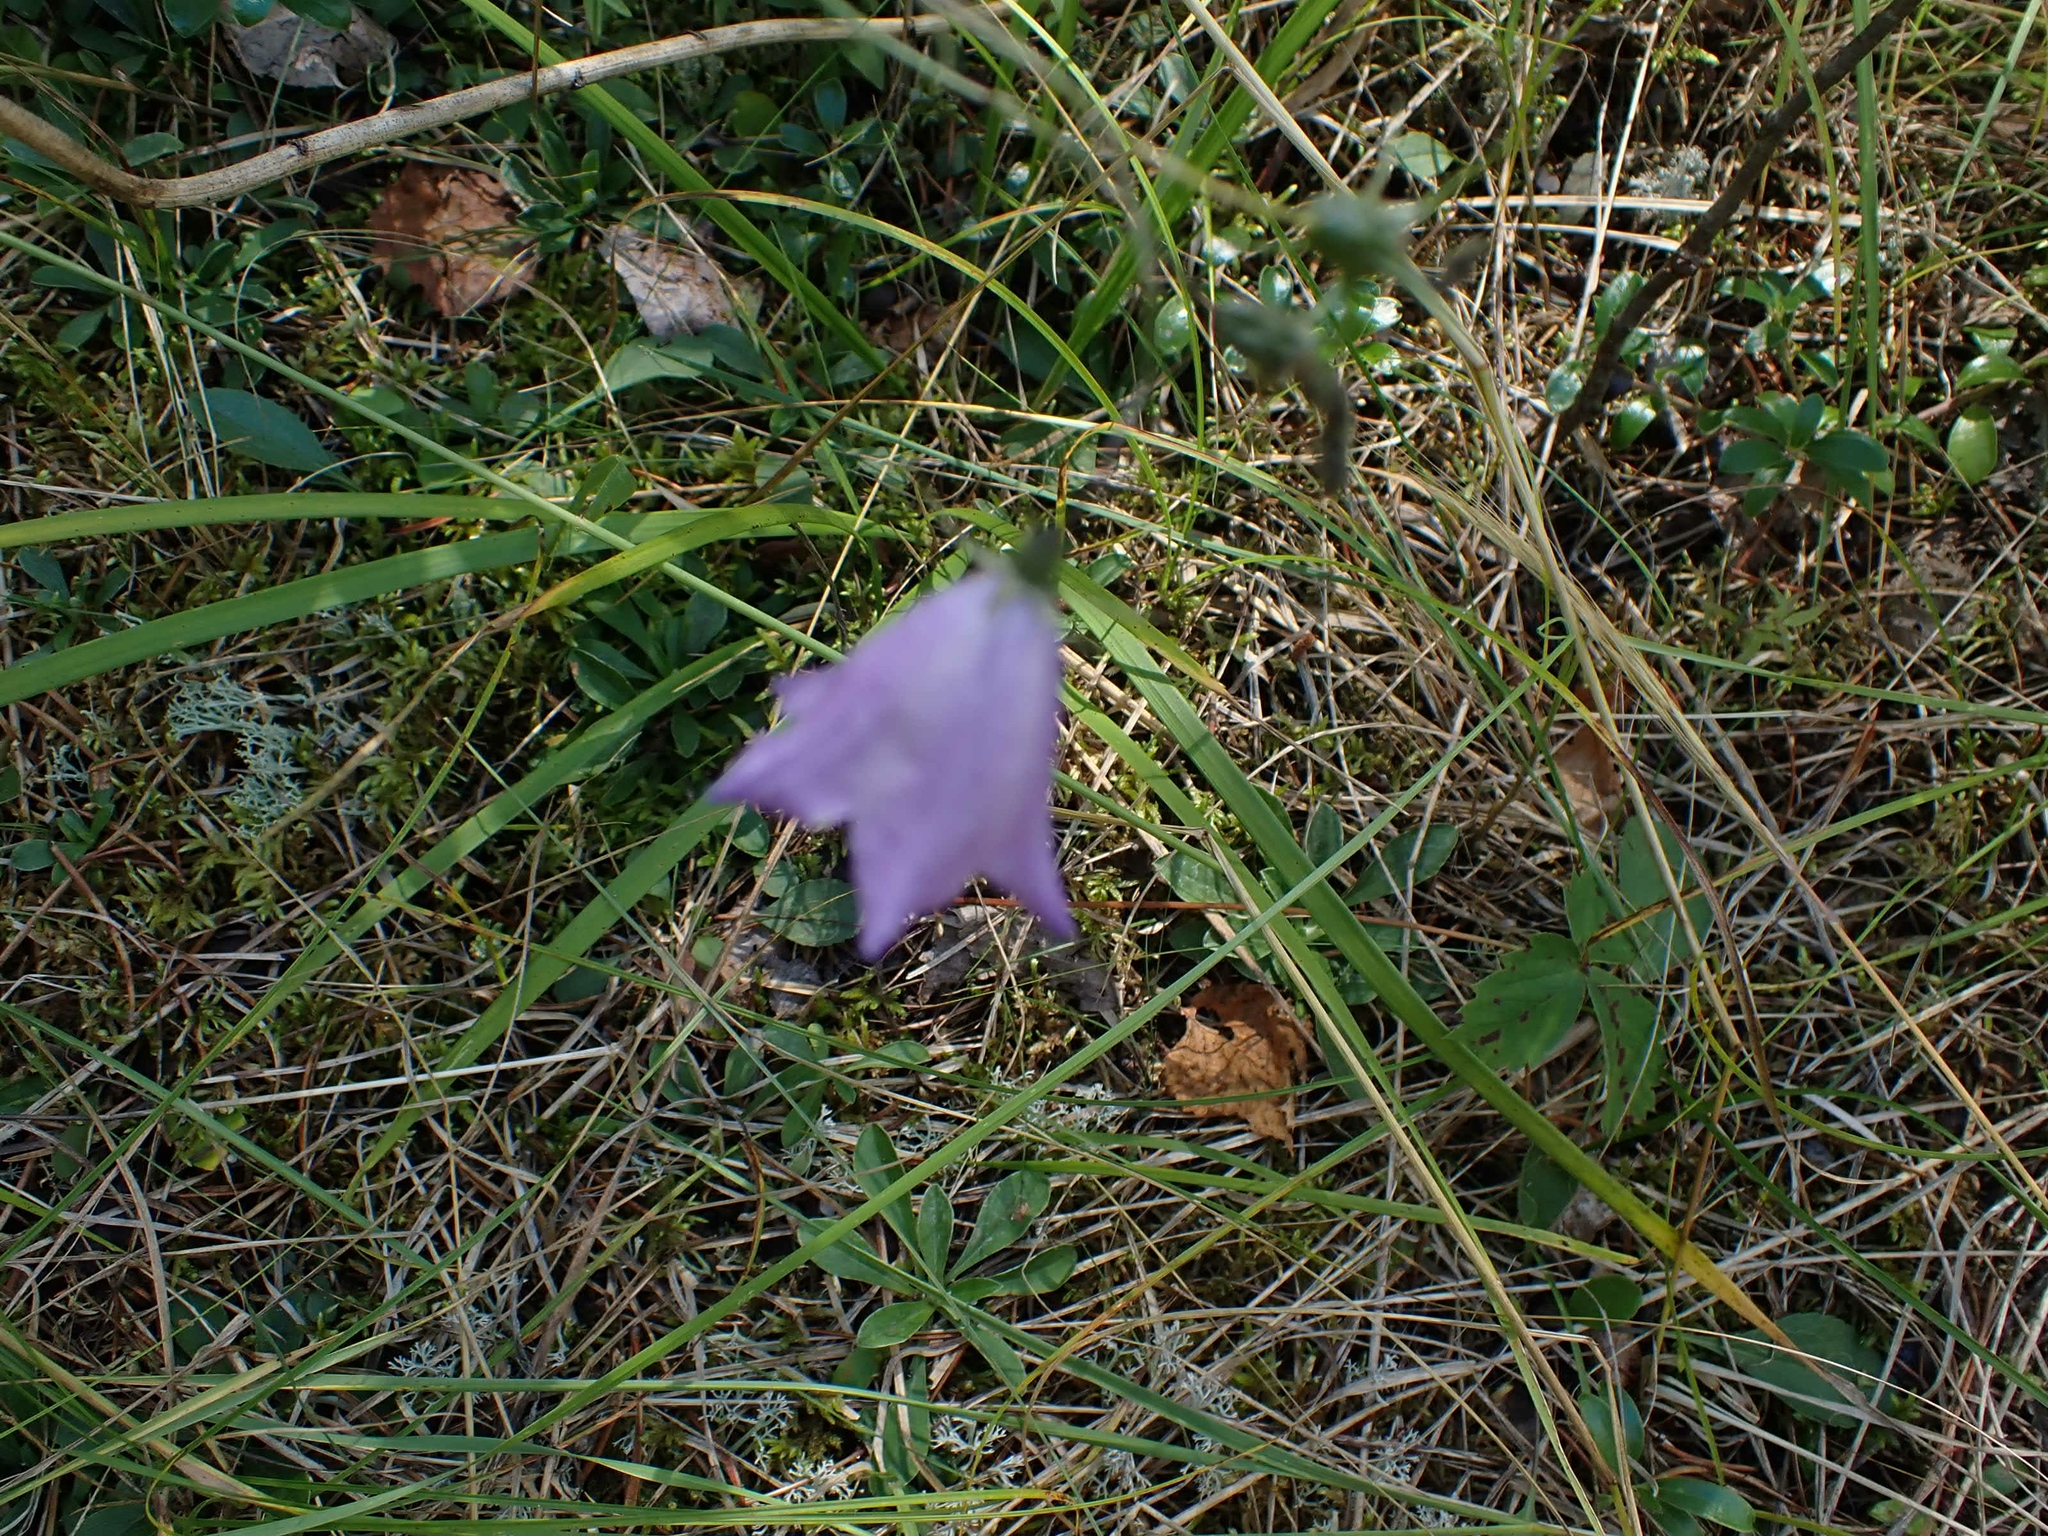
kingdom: Plantae
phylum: Tracheophyta
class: Magnoliopsida
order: Asterales
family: Campanulaceae
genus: Campanula
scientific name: Campanula petiolata
